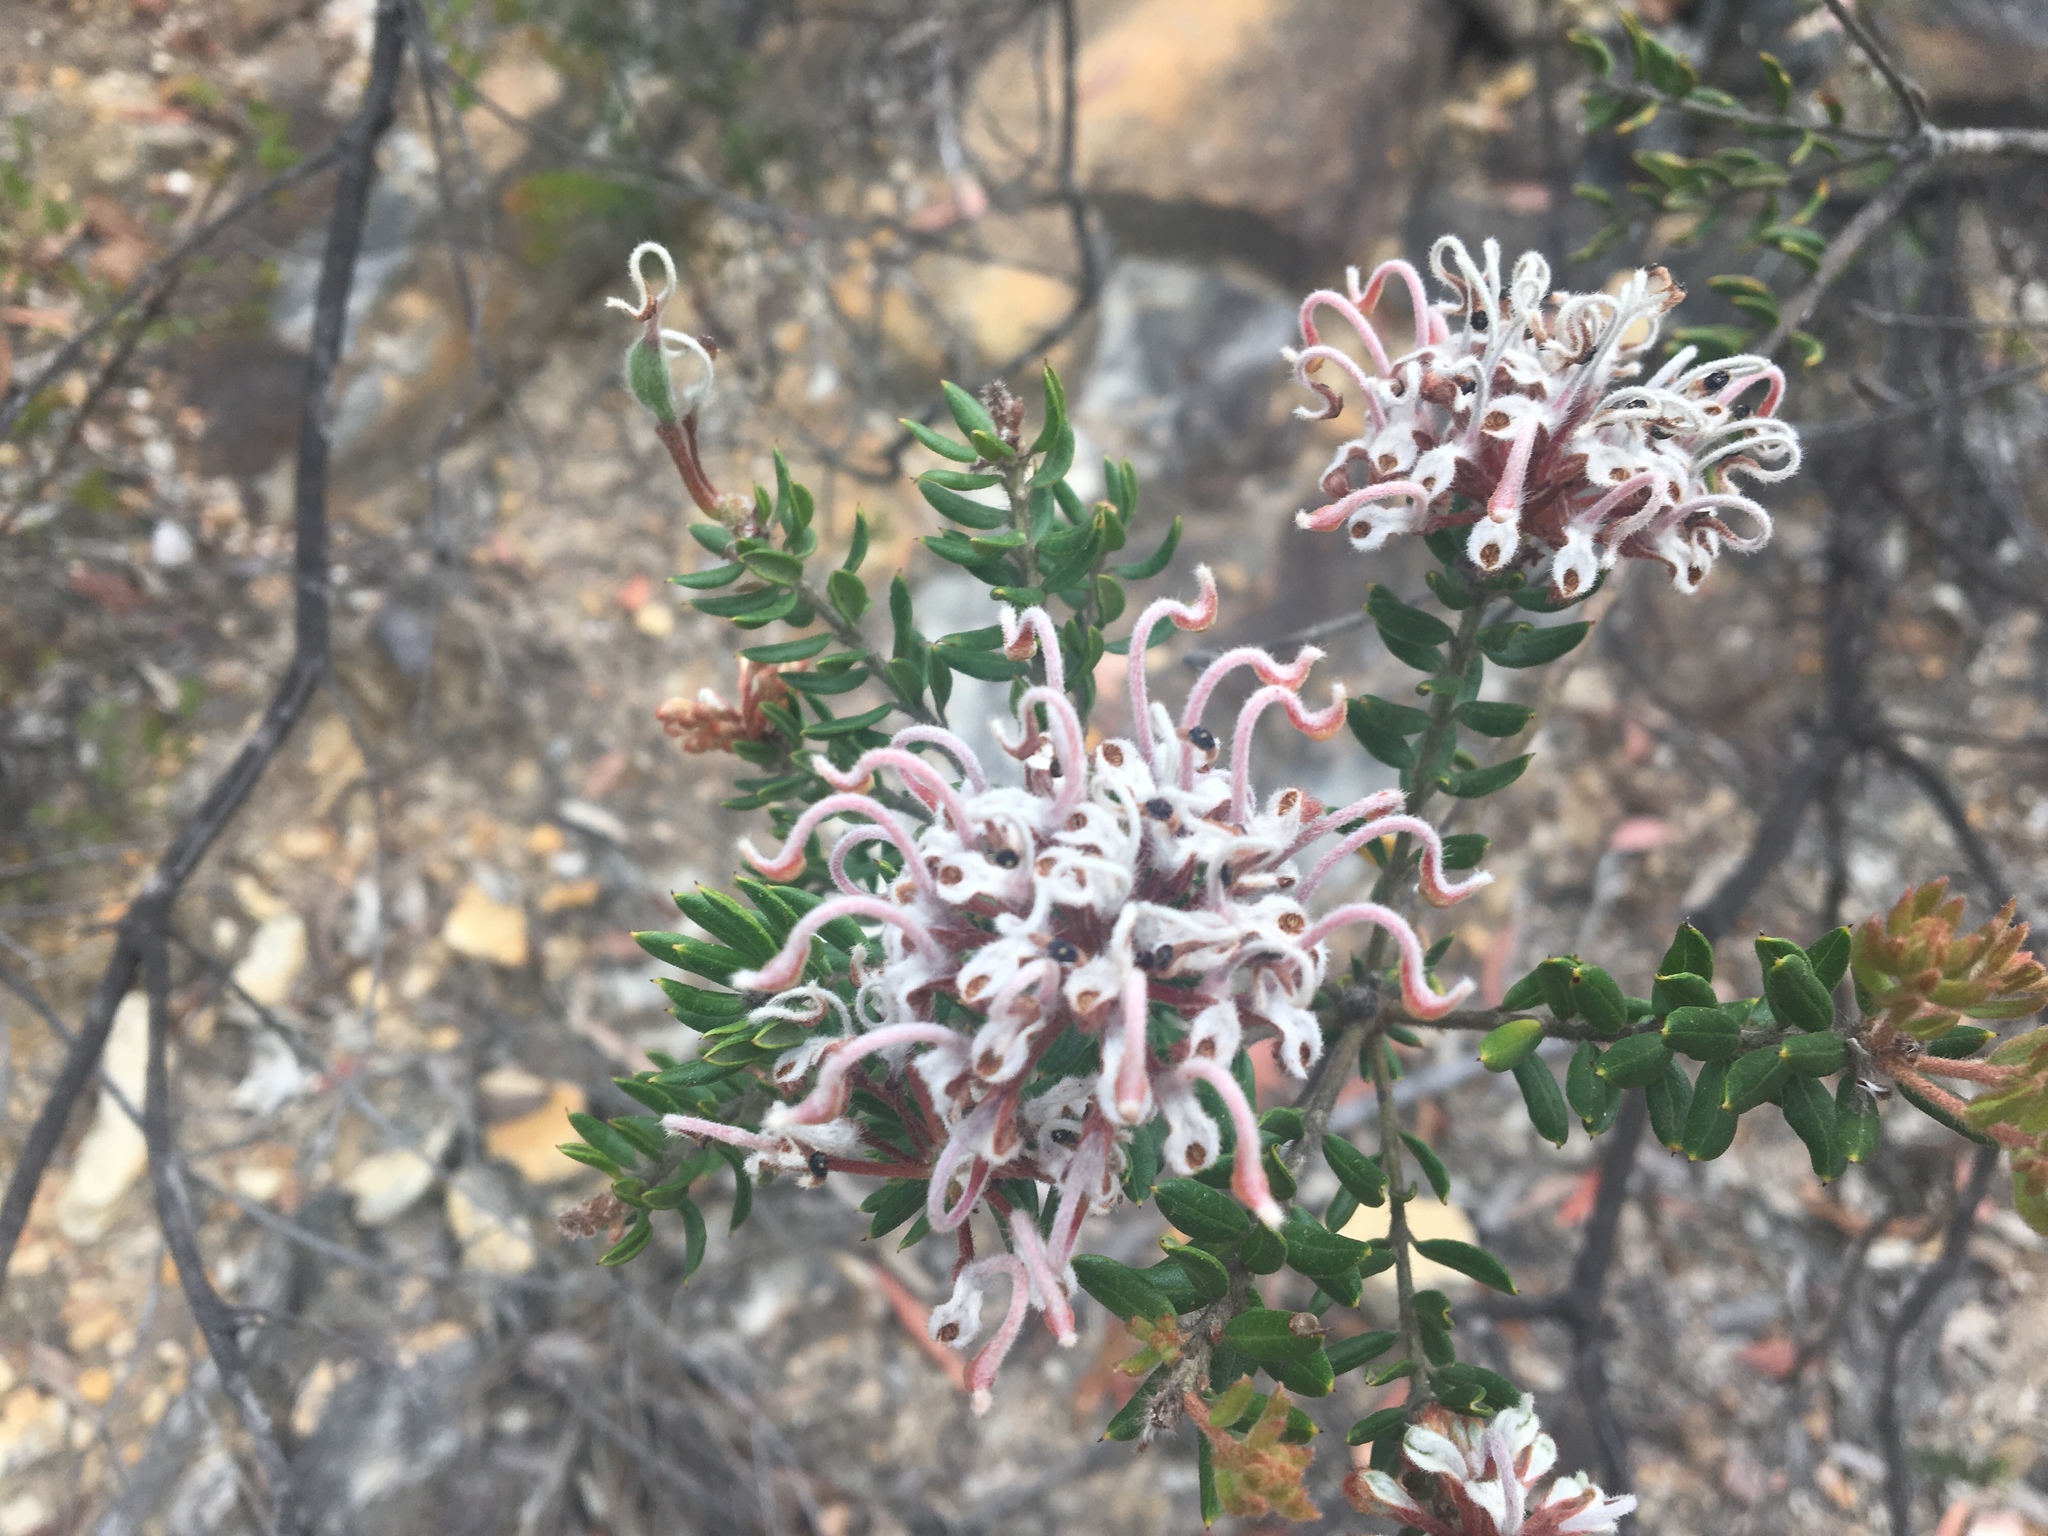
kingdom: Plantae
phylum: Tracheophyta
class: Magnoliopsida
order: Proteales
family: Proteaceae
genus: Grevillea
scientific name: Grevillea buxifolia
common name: Grey spiderflower
